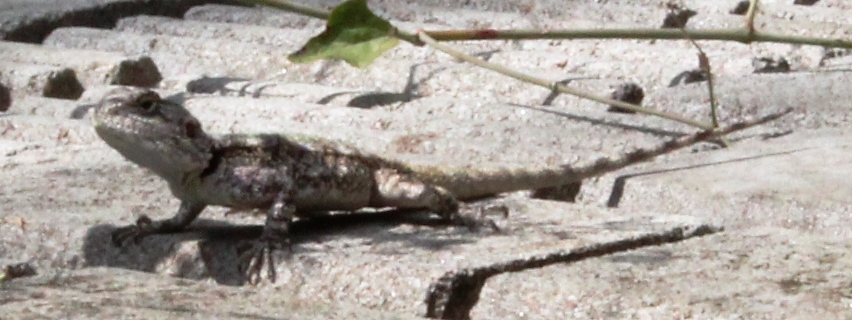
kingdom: Animalia
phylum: Chordata
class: Squamata
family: Agamidae
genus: Acanthocercus
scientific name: Acanthocercus atricollis
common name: Southern tree agama
